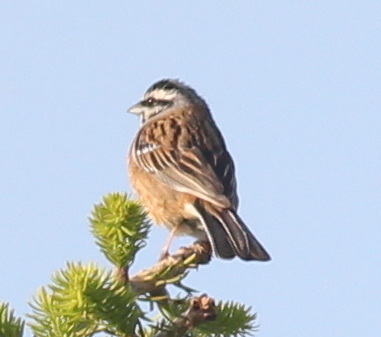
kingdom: Animalia
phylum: Chordata
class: Aves
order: Passeriformes
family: Emberizidae
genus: Emberiza
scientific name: Emberiza cia
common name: Rock bunting
